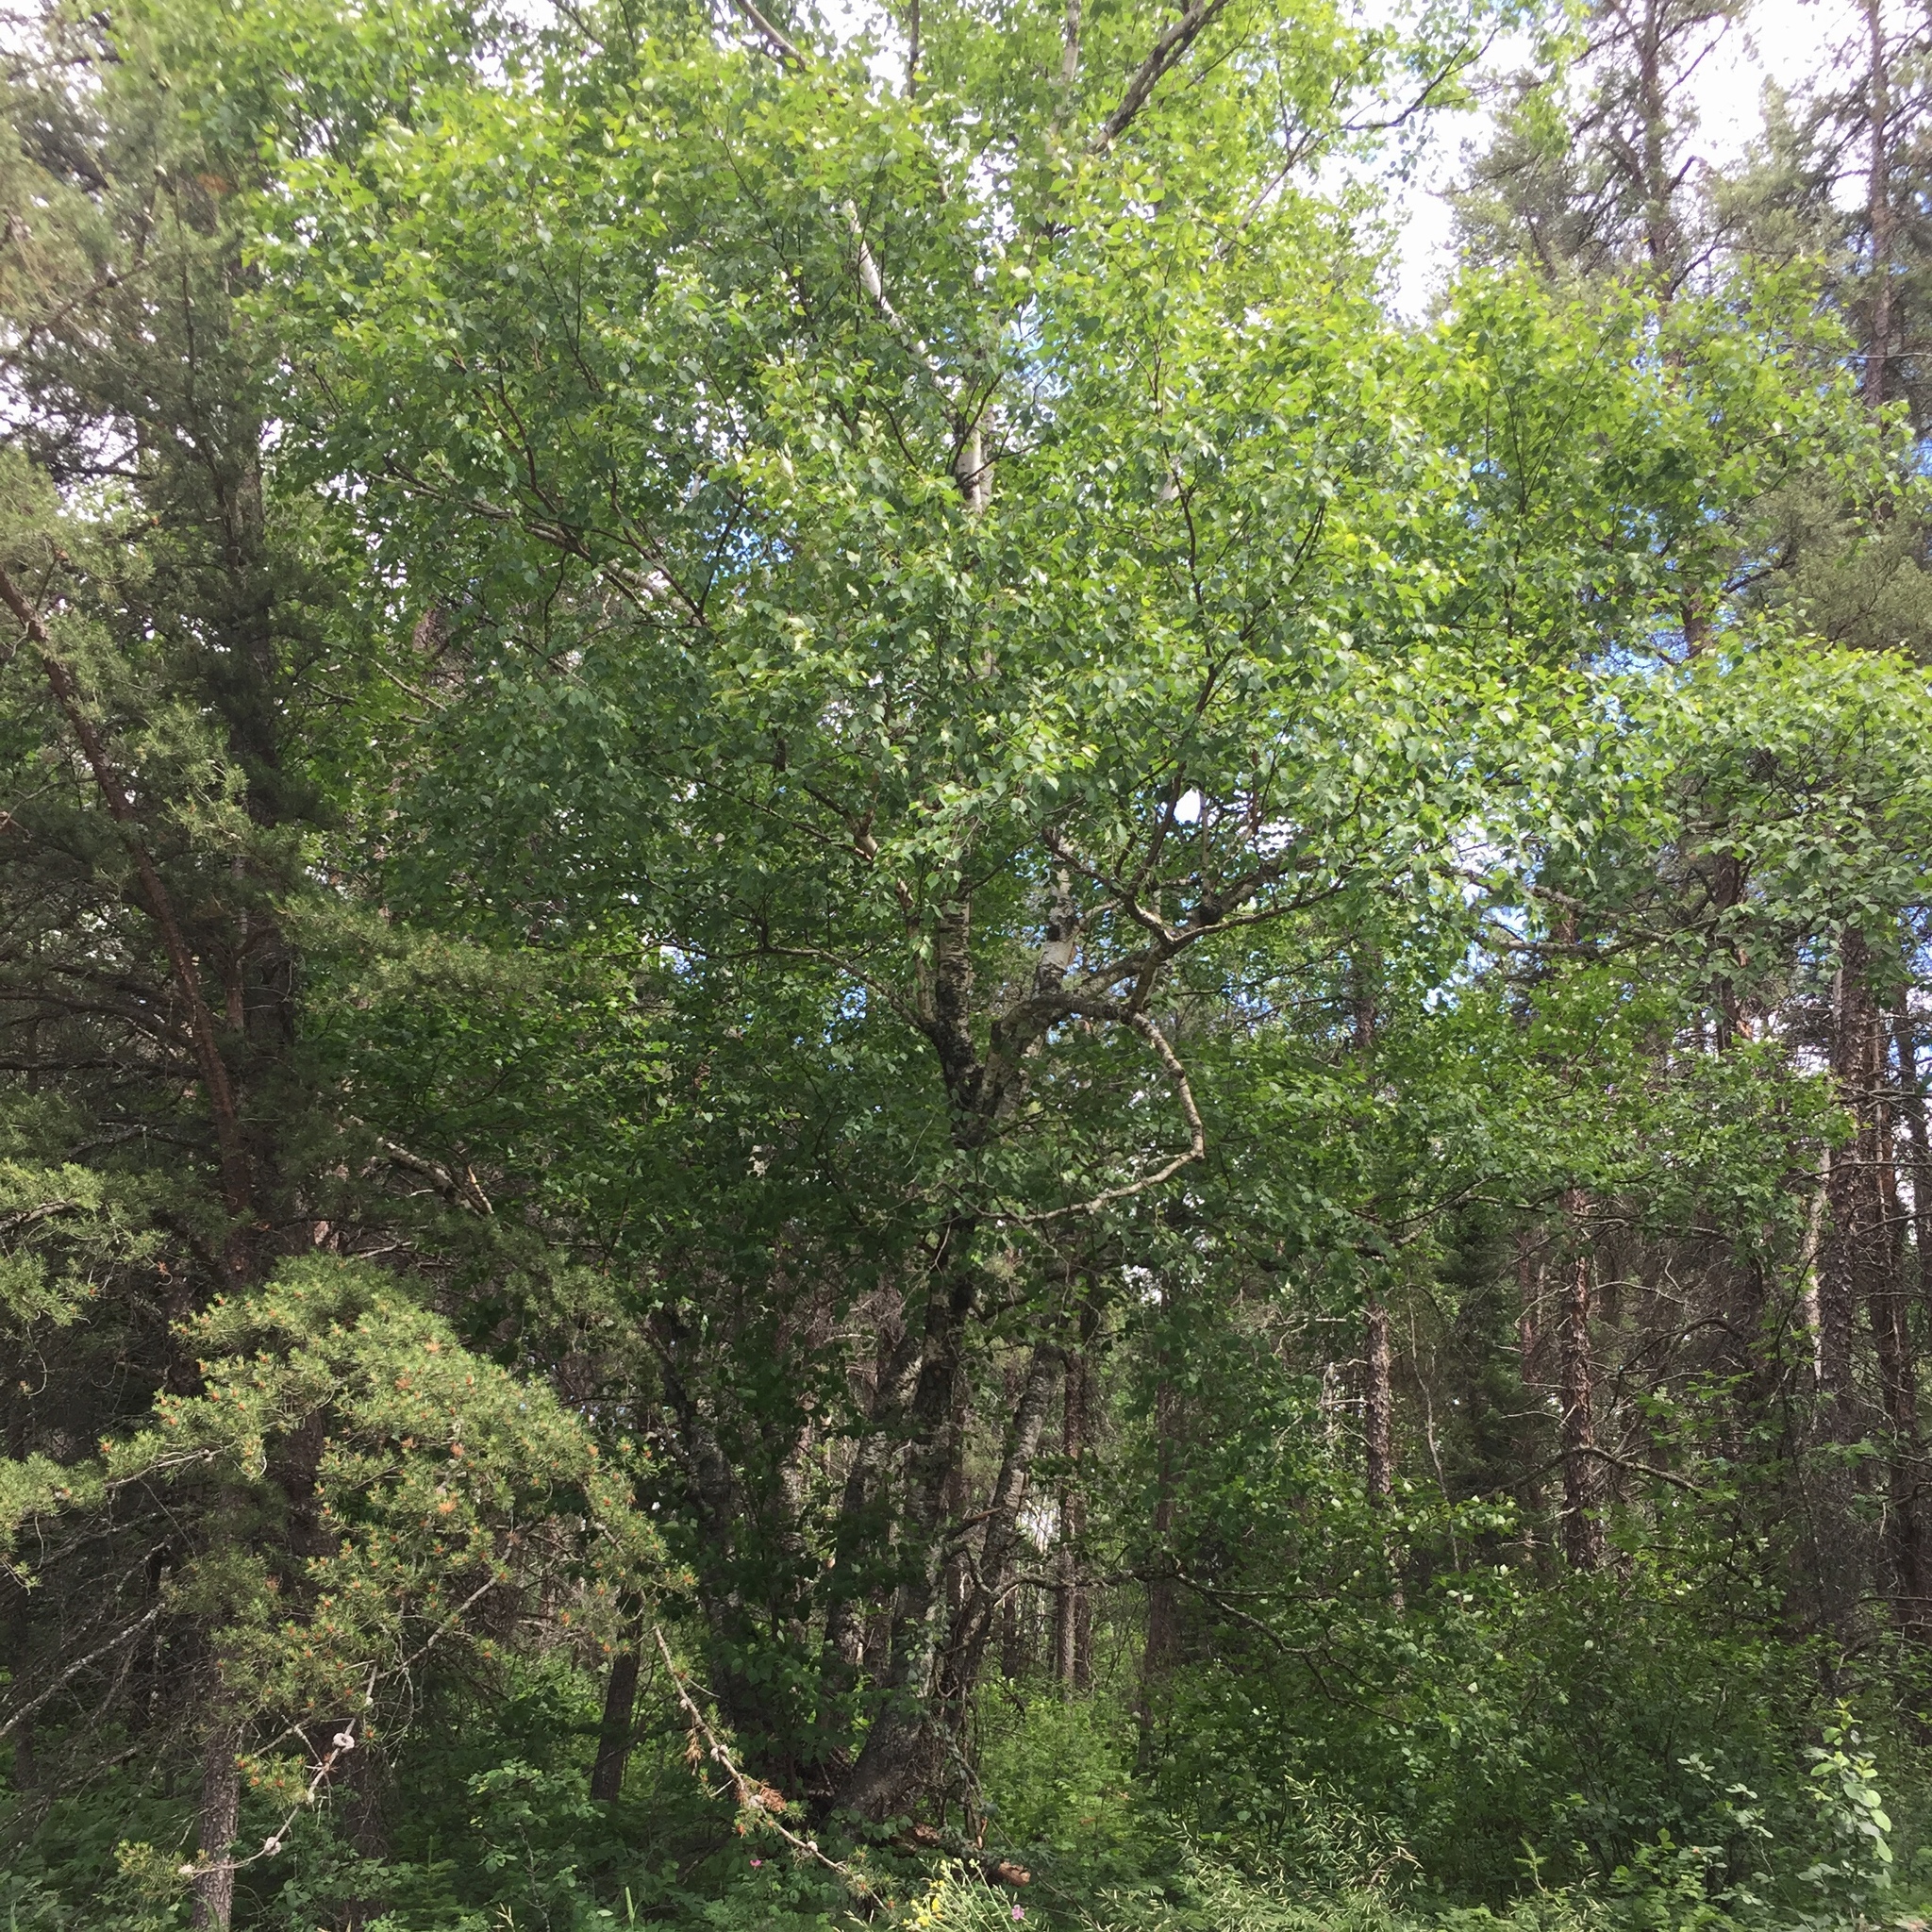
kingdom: Plantae
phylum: Tracheophyta
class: Magnoliopsida
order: Fagales
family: Betulaceae
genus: Betula
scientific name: Betula papyrifera
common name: Paper birch
